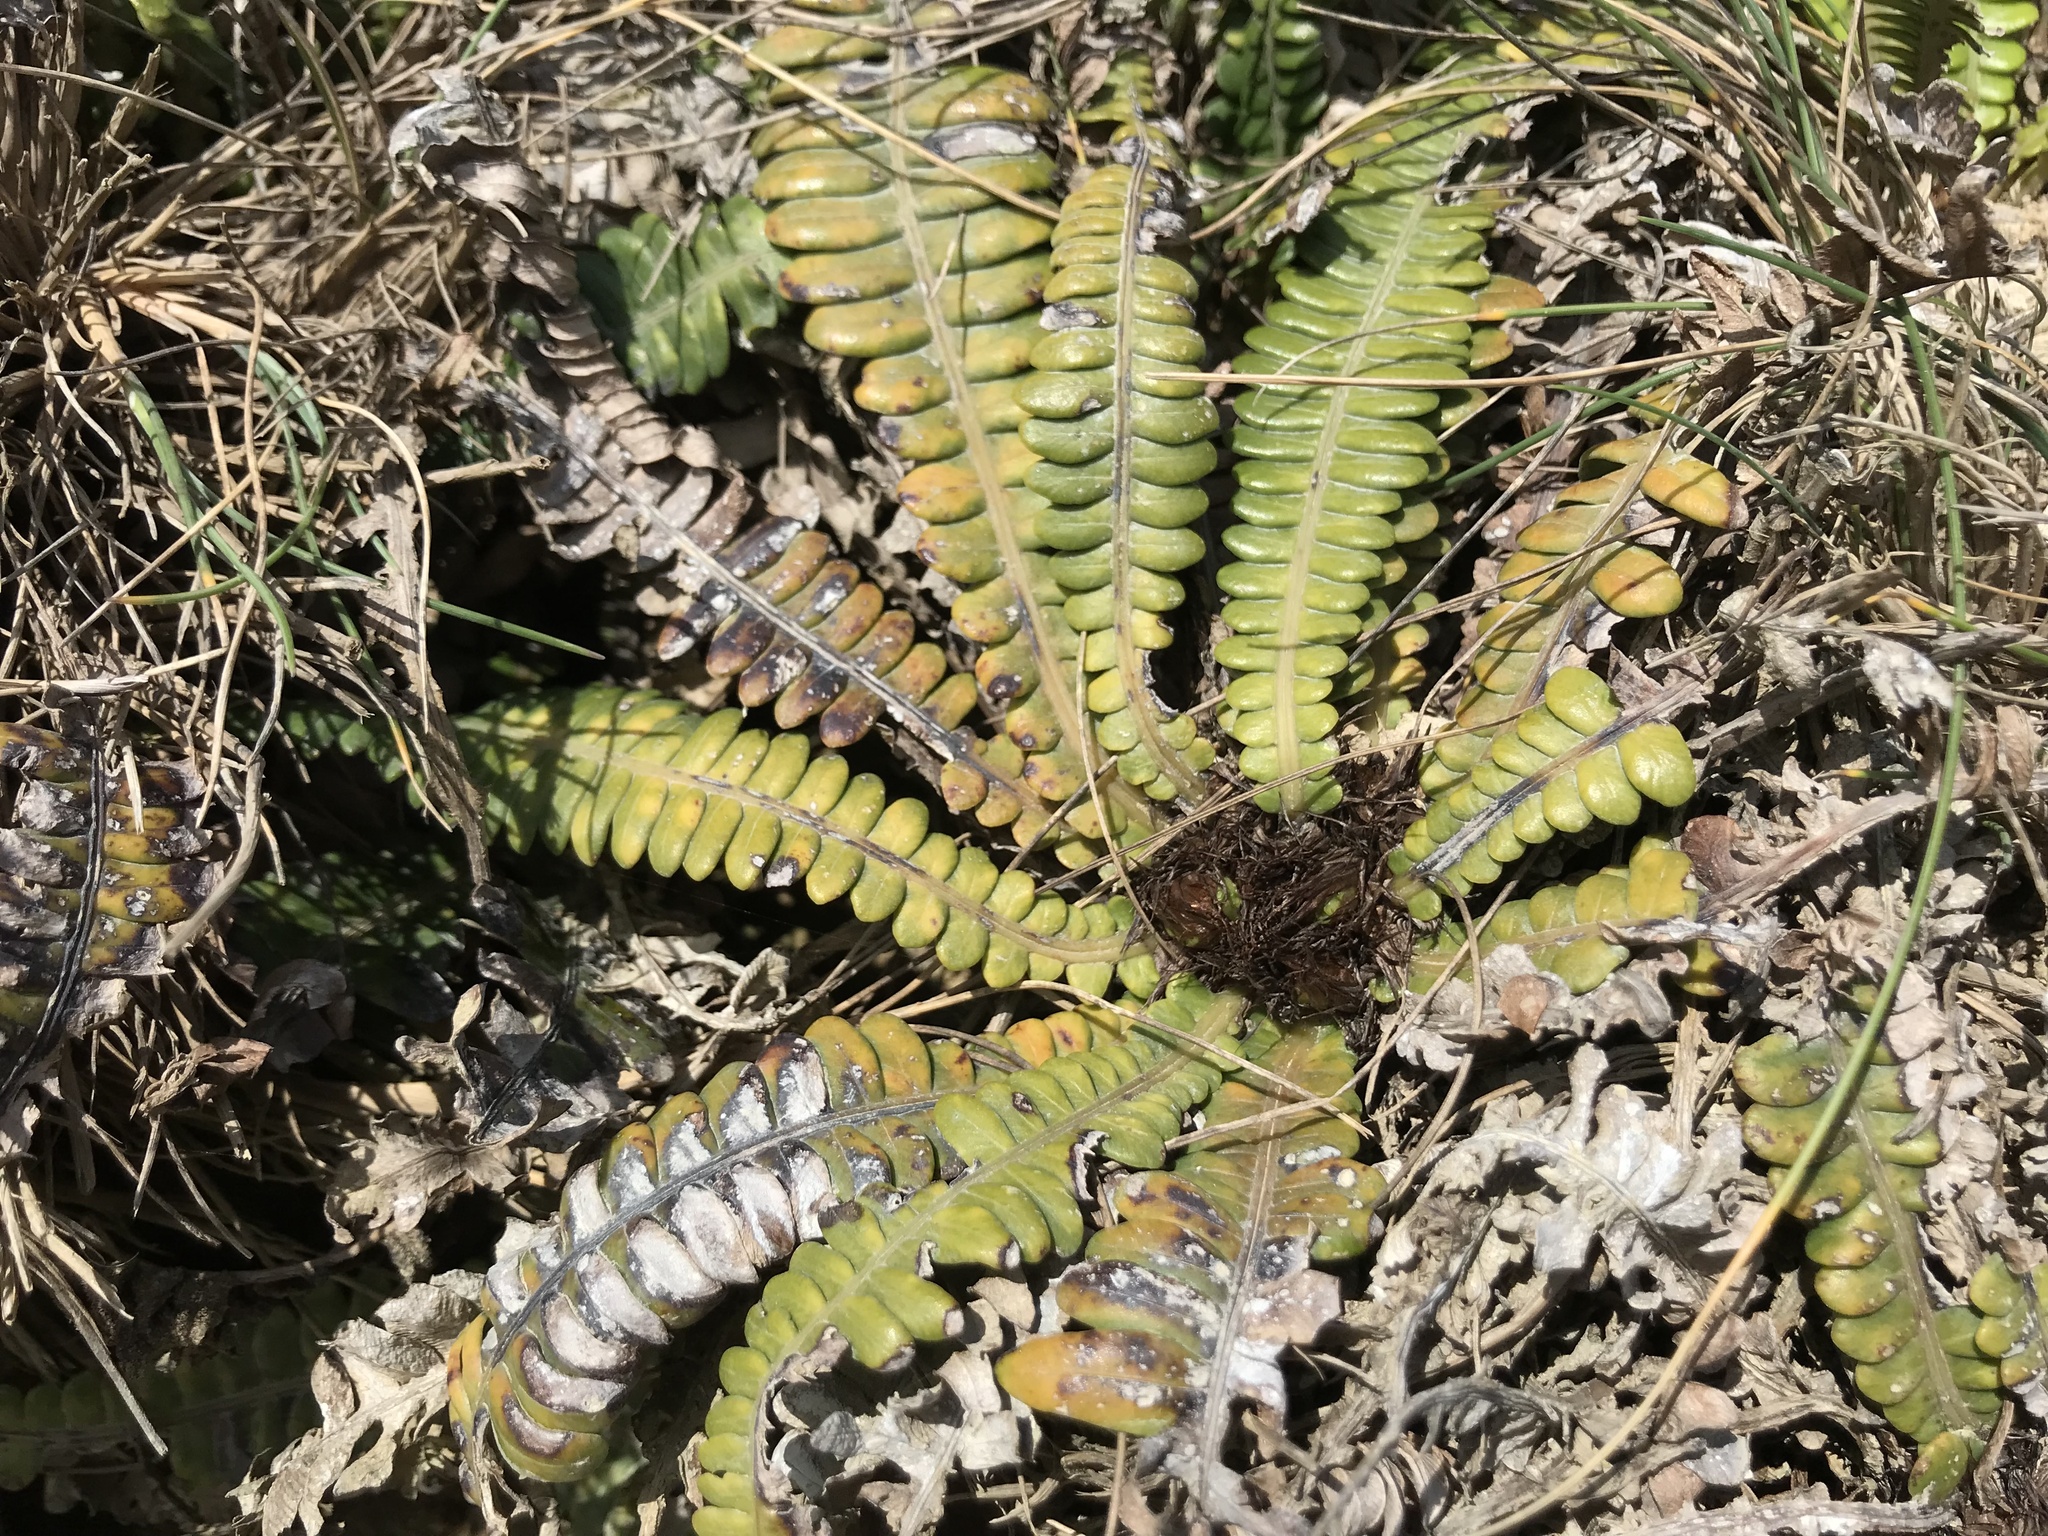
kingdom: Plantae
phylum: Tracheophyta
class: Polypodiopsida
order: Polypodiales
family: Blechnaceae
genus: Austroblechnum
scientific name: Austroblechnum durum
